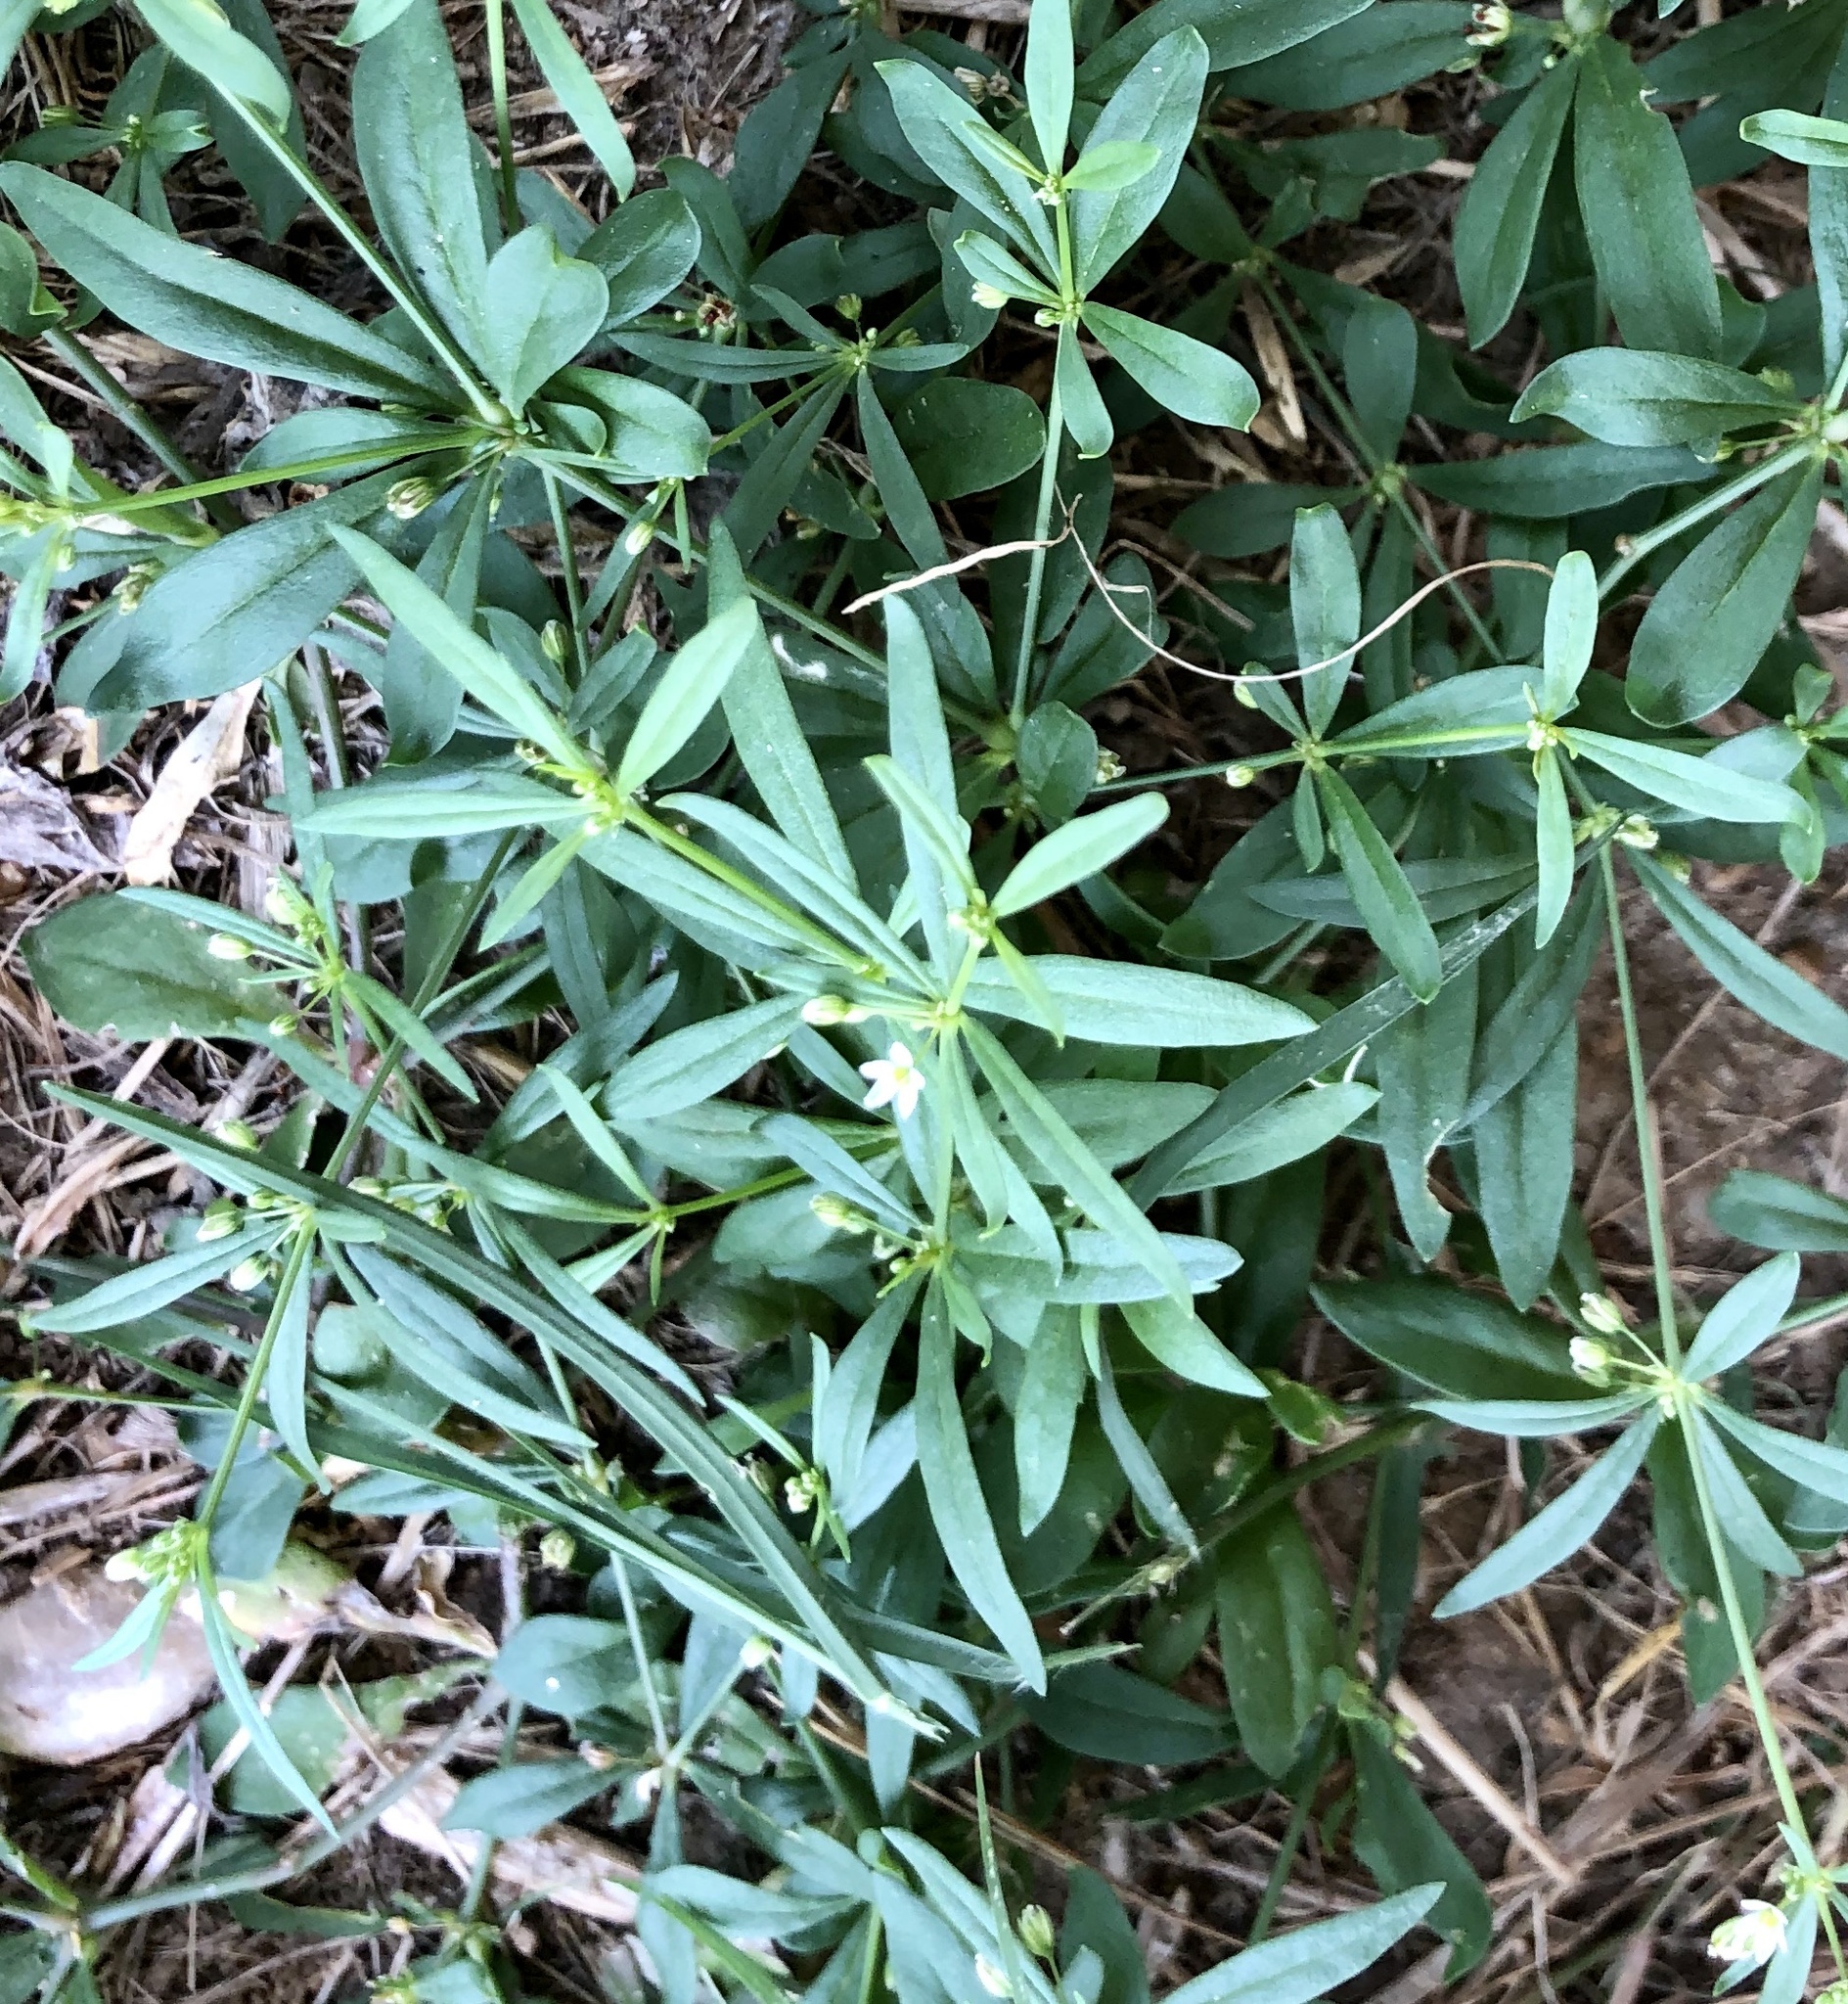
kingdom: Plantae
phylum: Tracheophyta
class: Magnoliopsida
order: Caryophyllales
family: Molluginaceae
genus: Mollugo
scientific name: Mollugo verticillata
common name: Green carpetweed
